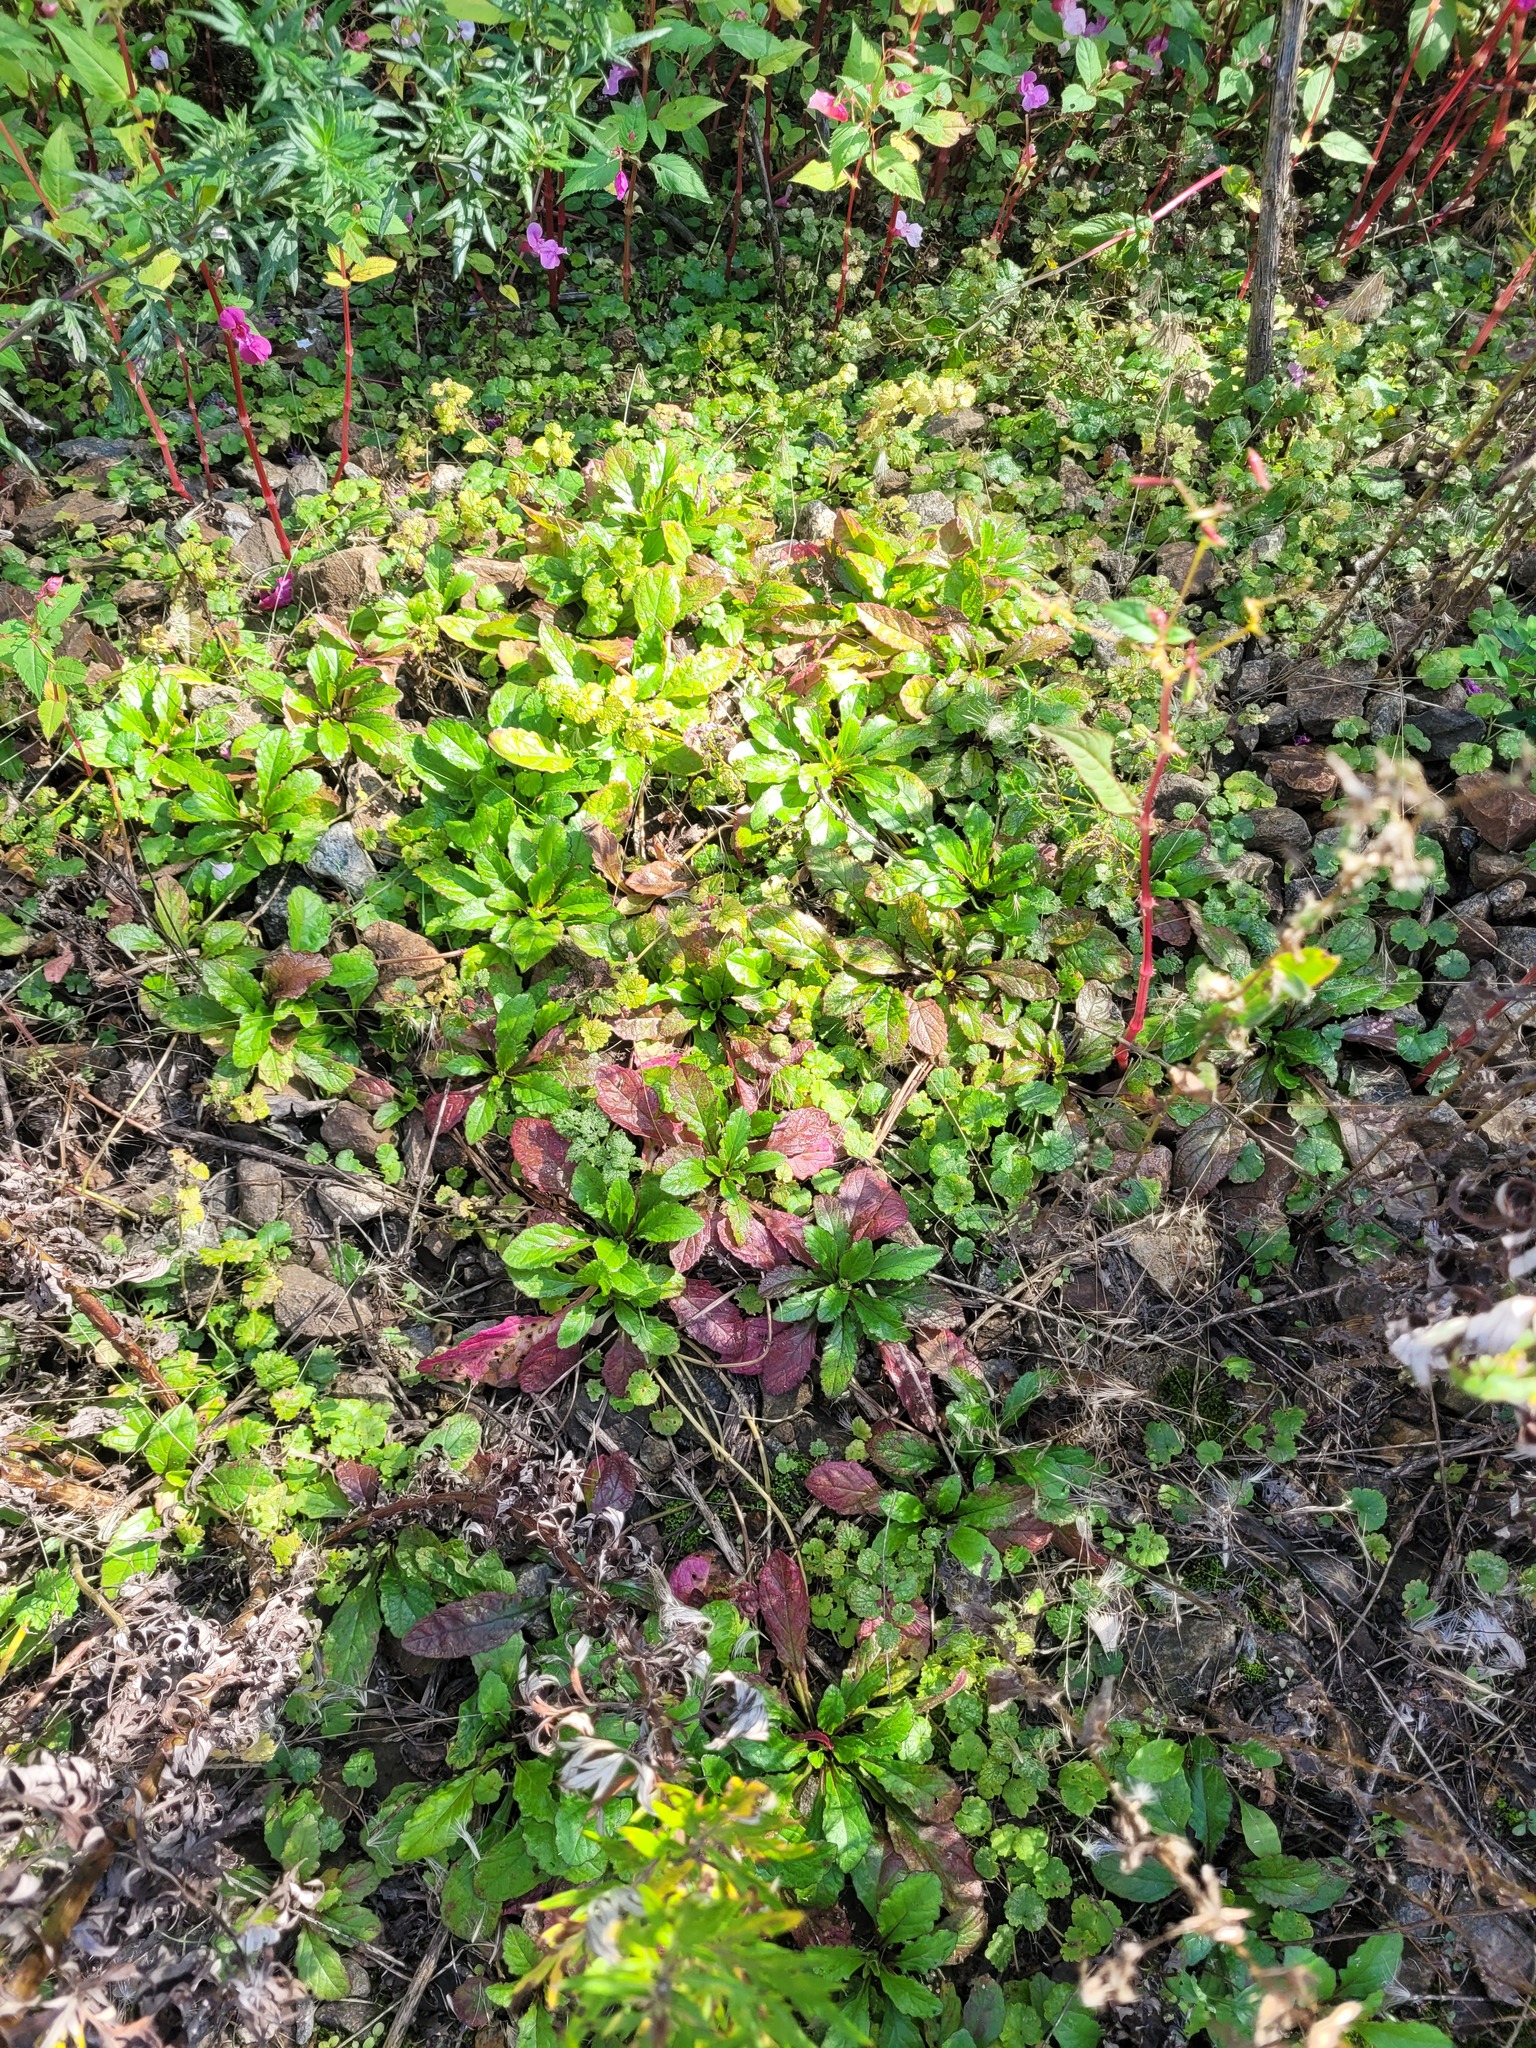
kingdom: Plantae
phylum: Tracheophyta
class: Magnoliopsida
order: Lamiales
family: Lamiaceae
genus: Ajuga
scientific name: Ajuga reptans
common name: Bugle
